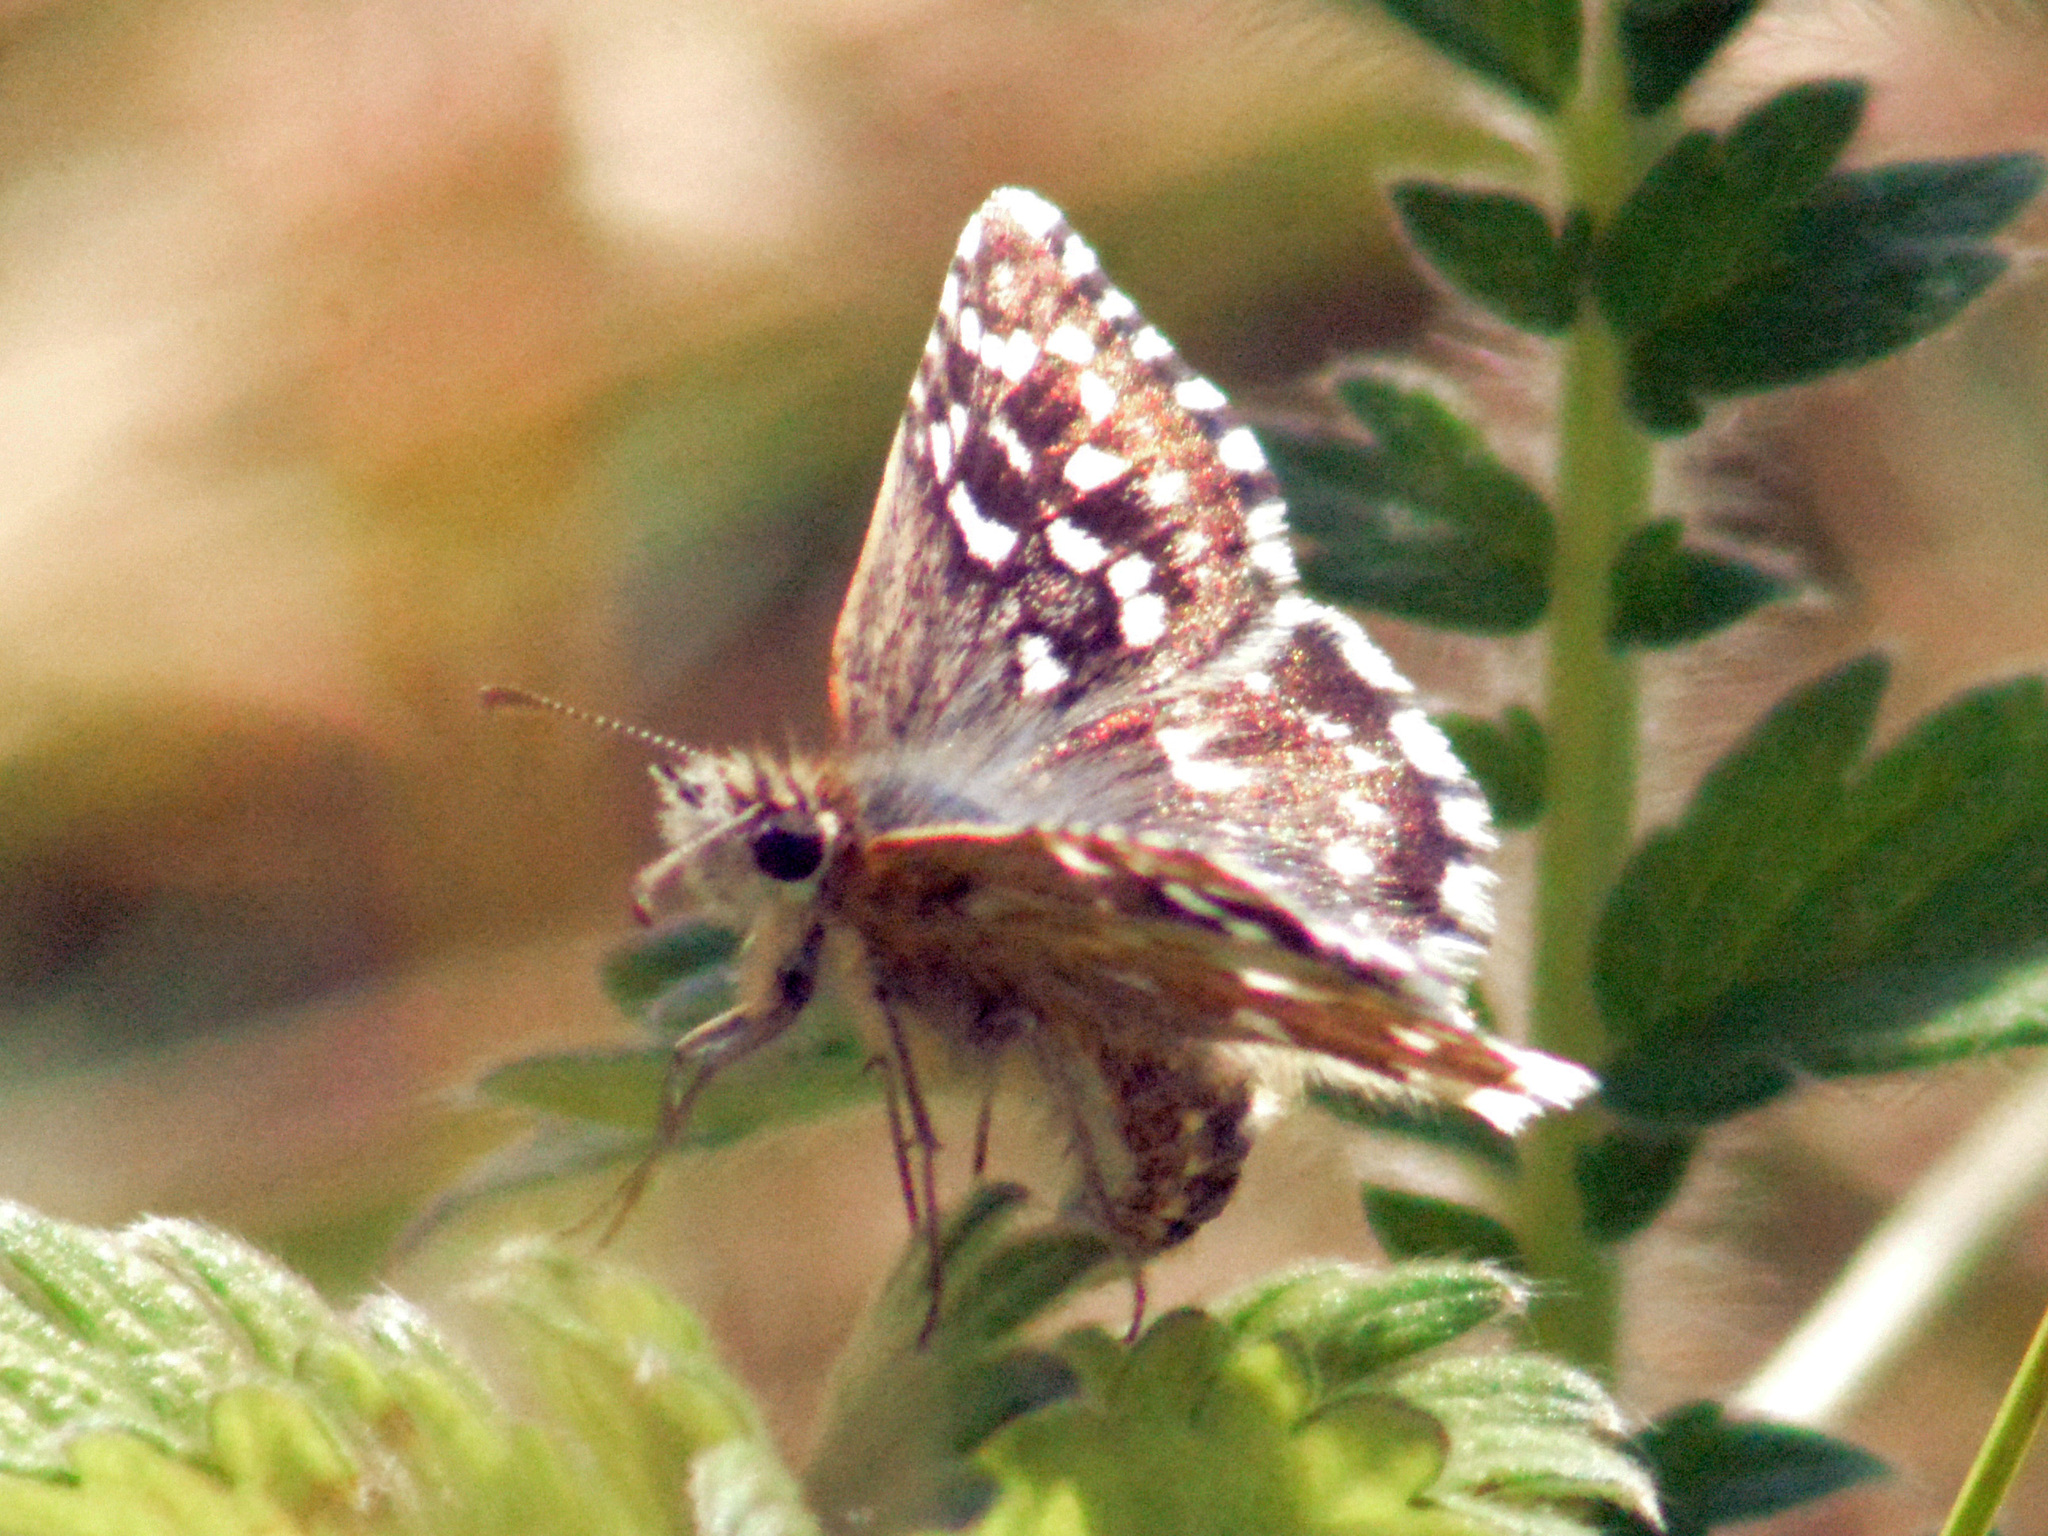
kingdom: Animalia
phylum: Arthropoda
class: Insecta
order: Lepidoptera
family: Hesperiidae
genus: Pyrgus
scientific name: Pyrgus malvae
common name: Grizzled skipper
